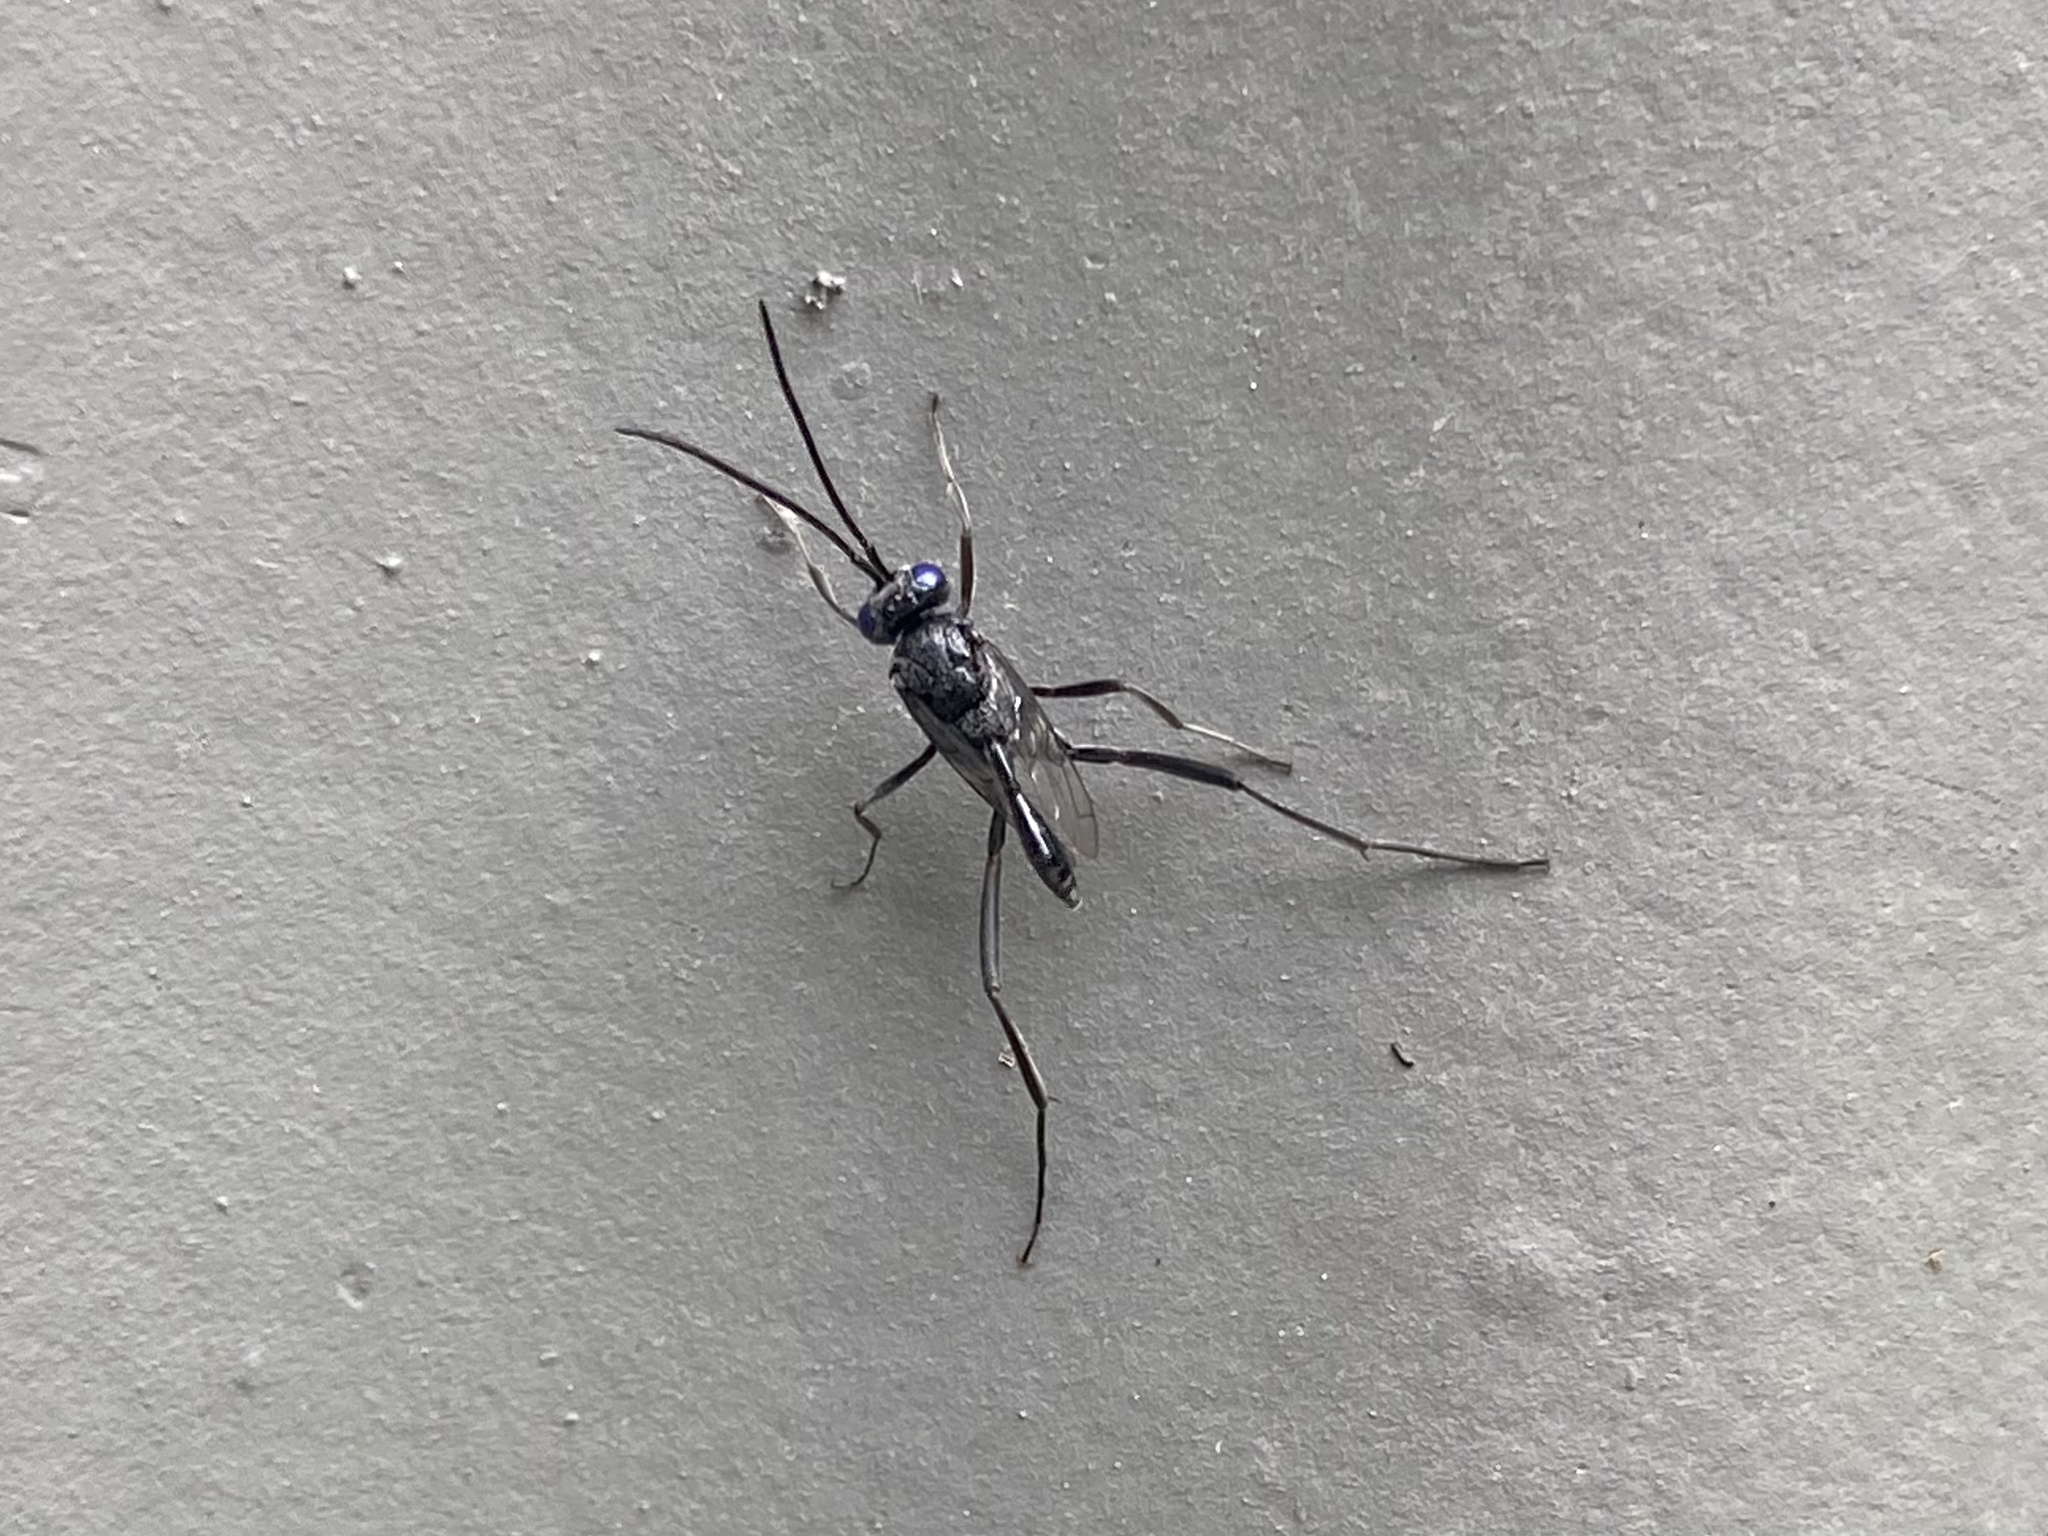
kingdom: Animalia
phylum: Arthropoda
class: Insecta
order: Hymenoptera
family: Evaniidae
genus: Evania
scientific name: Evania appendigaster
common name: Ensign wasp
